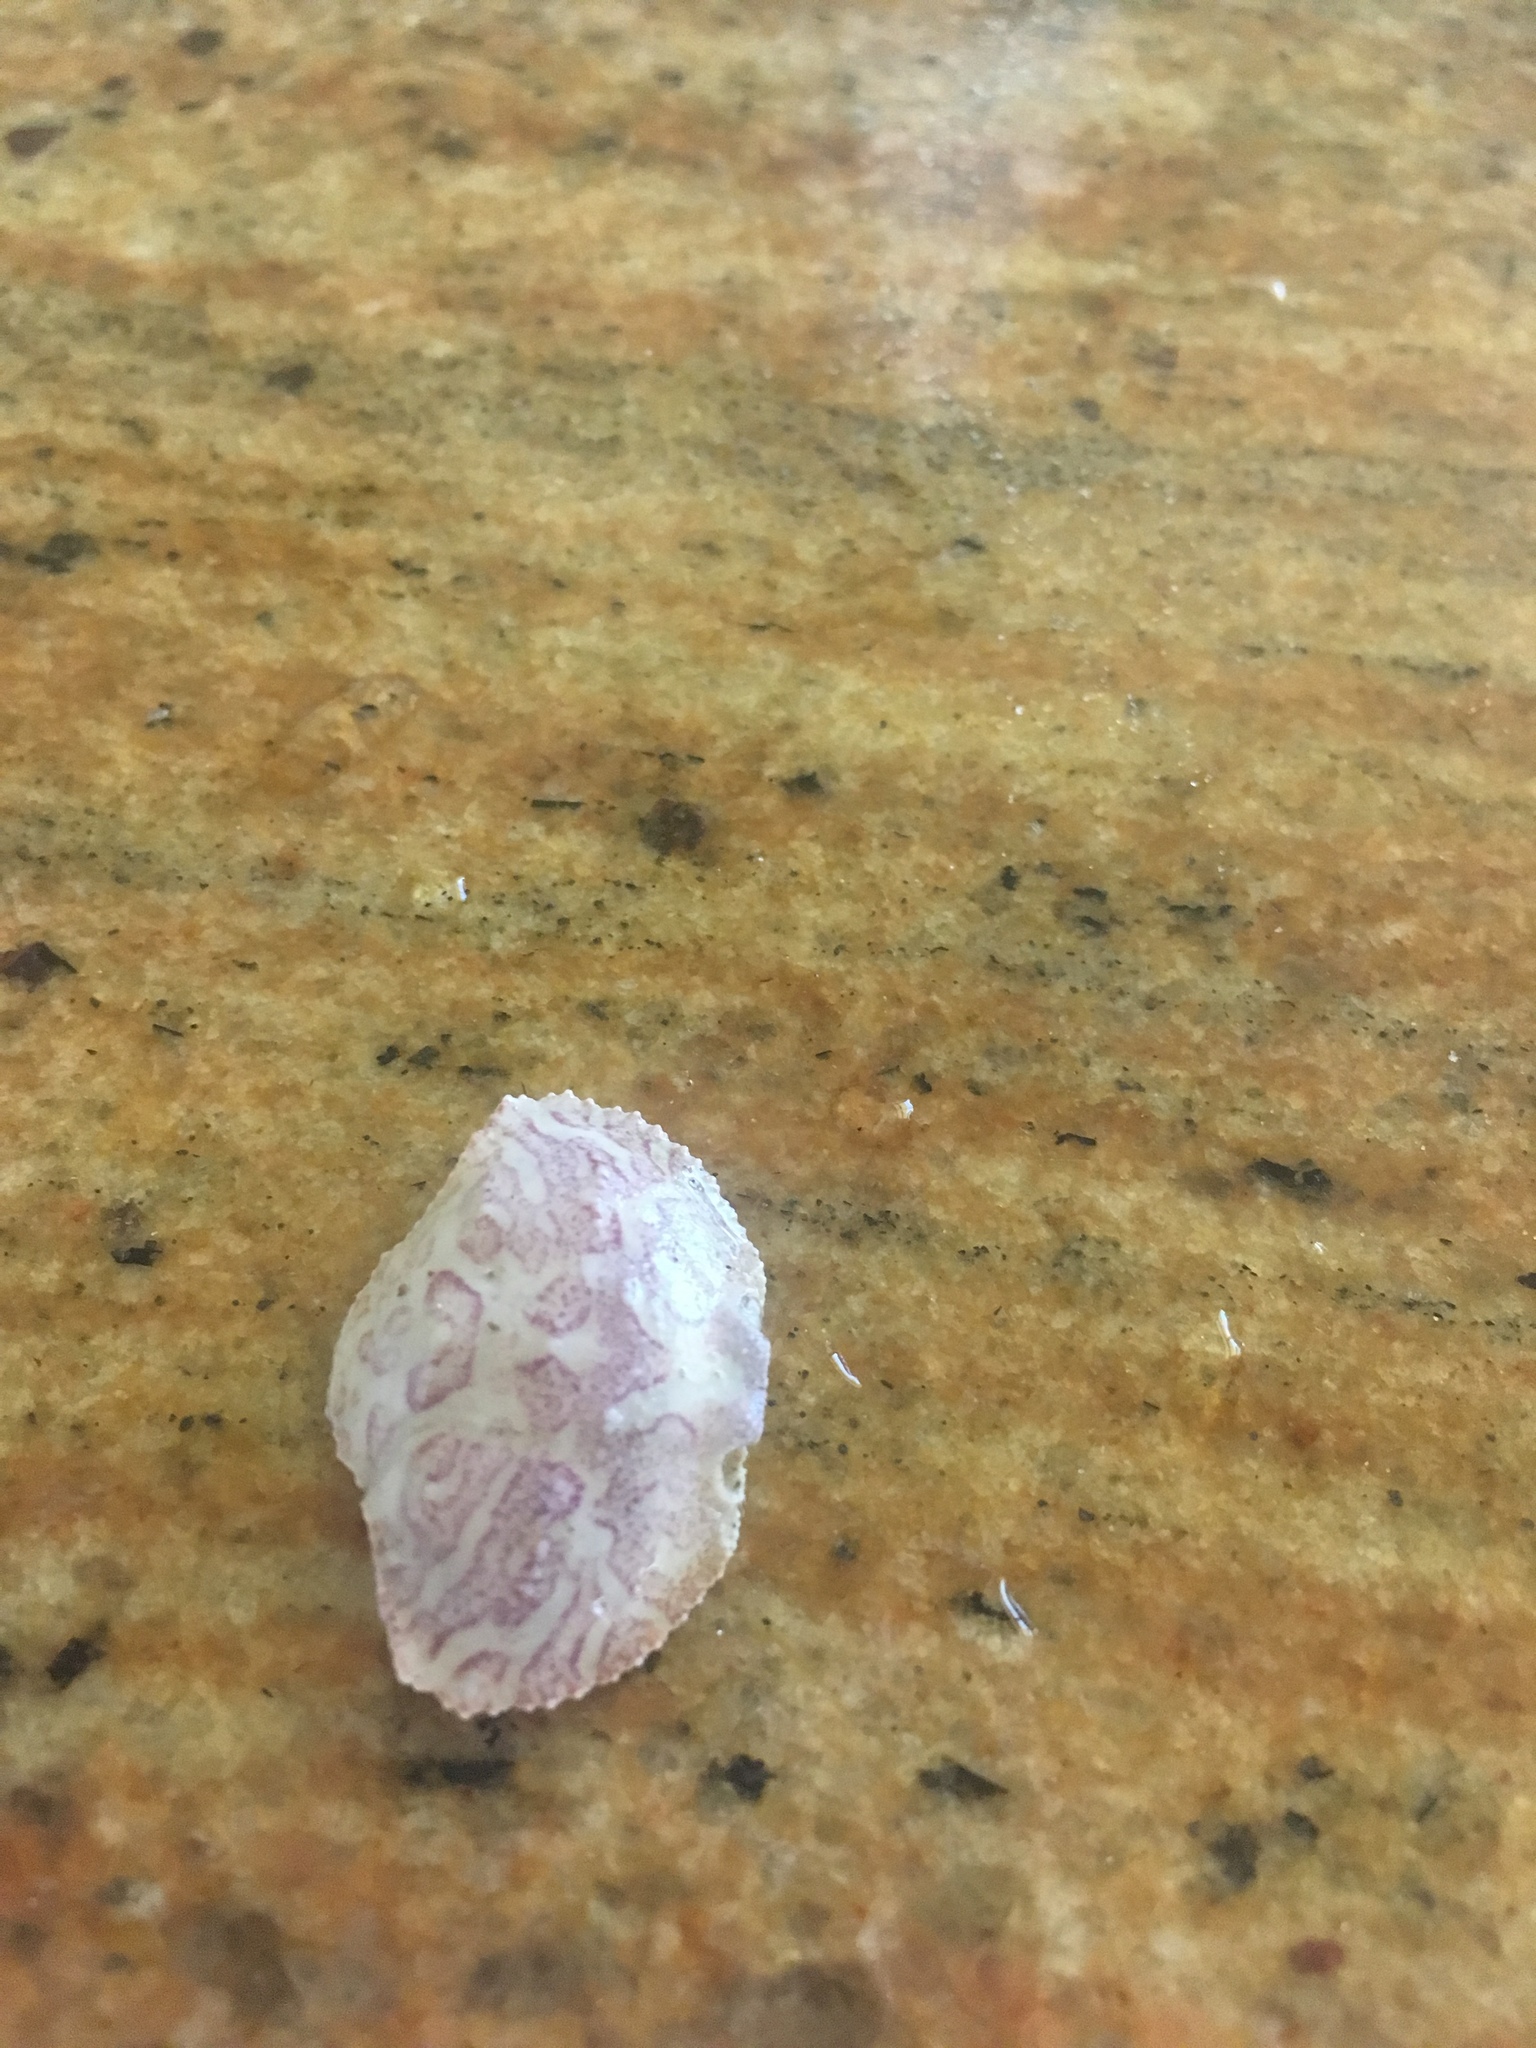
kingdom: Animalia
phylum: Arthropoda
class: Malacostraca
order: Decapoda
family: Aethridae
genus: Hepatus
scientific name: Hepatus epheliticus
